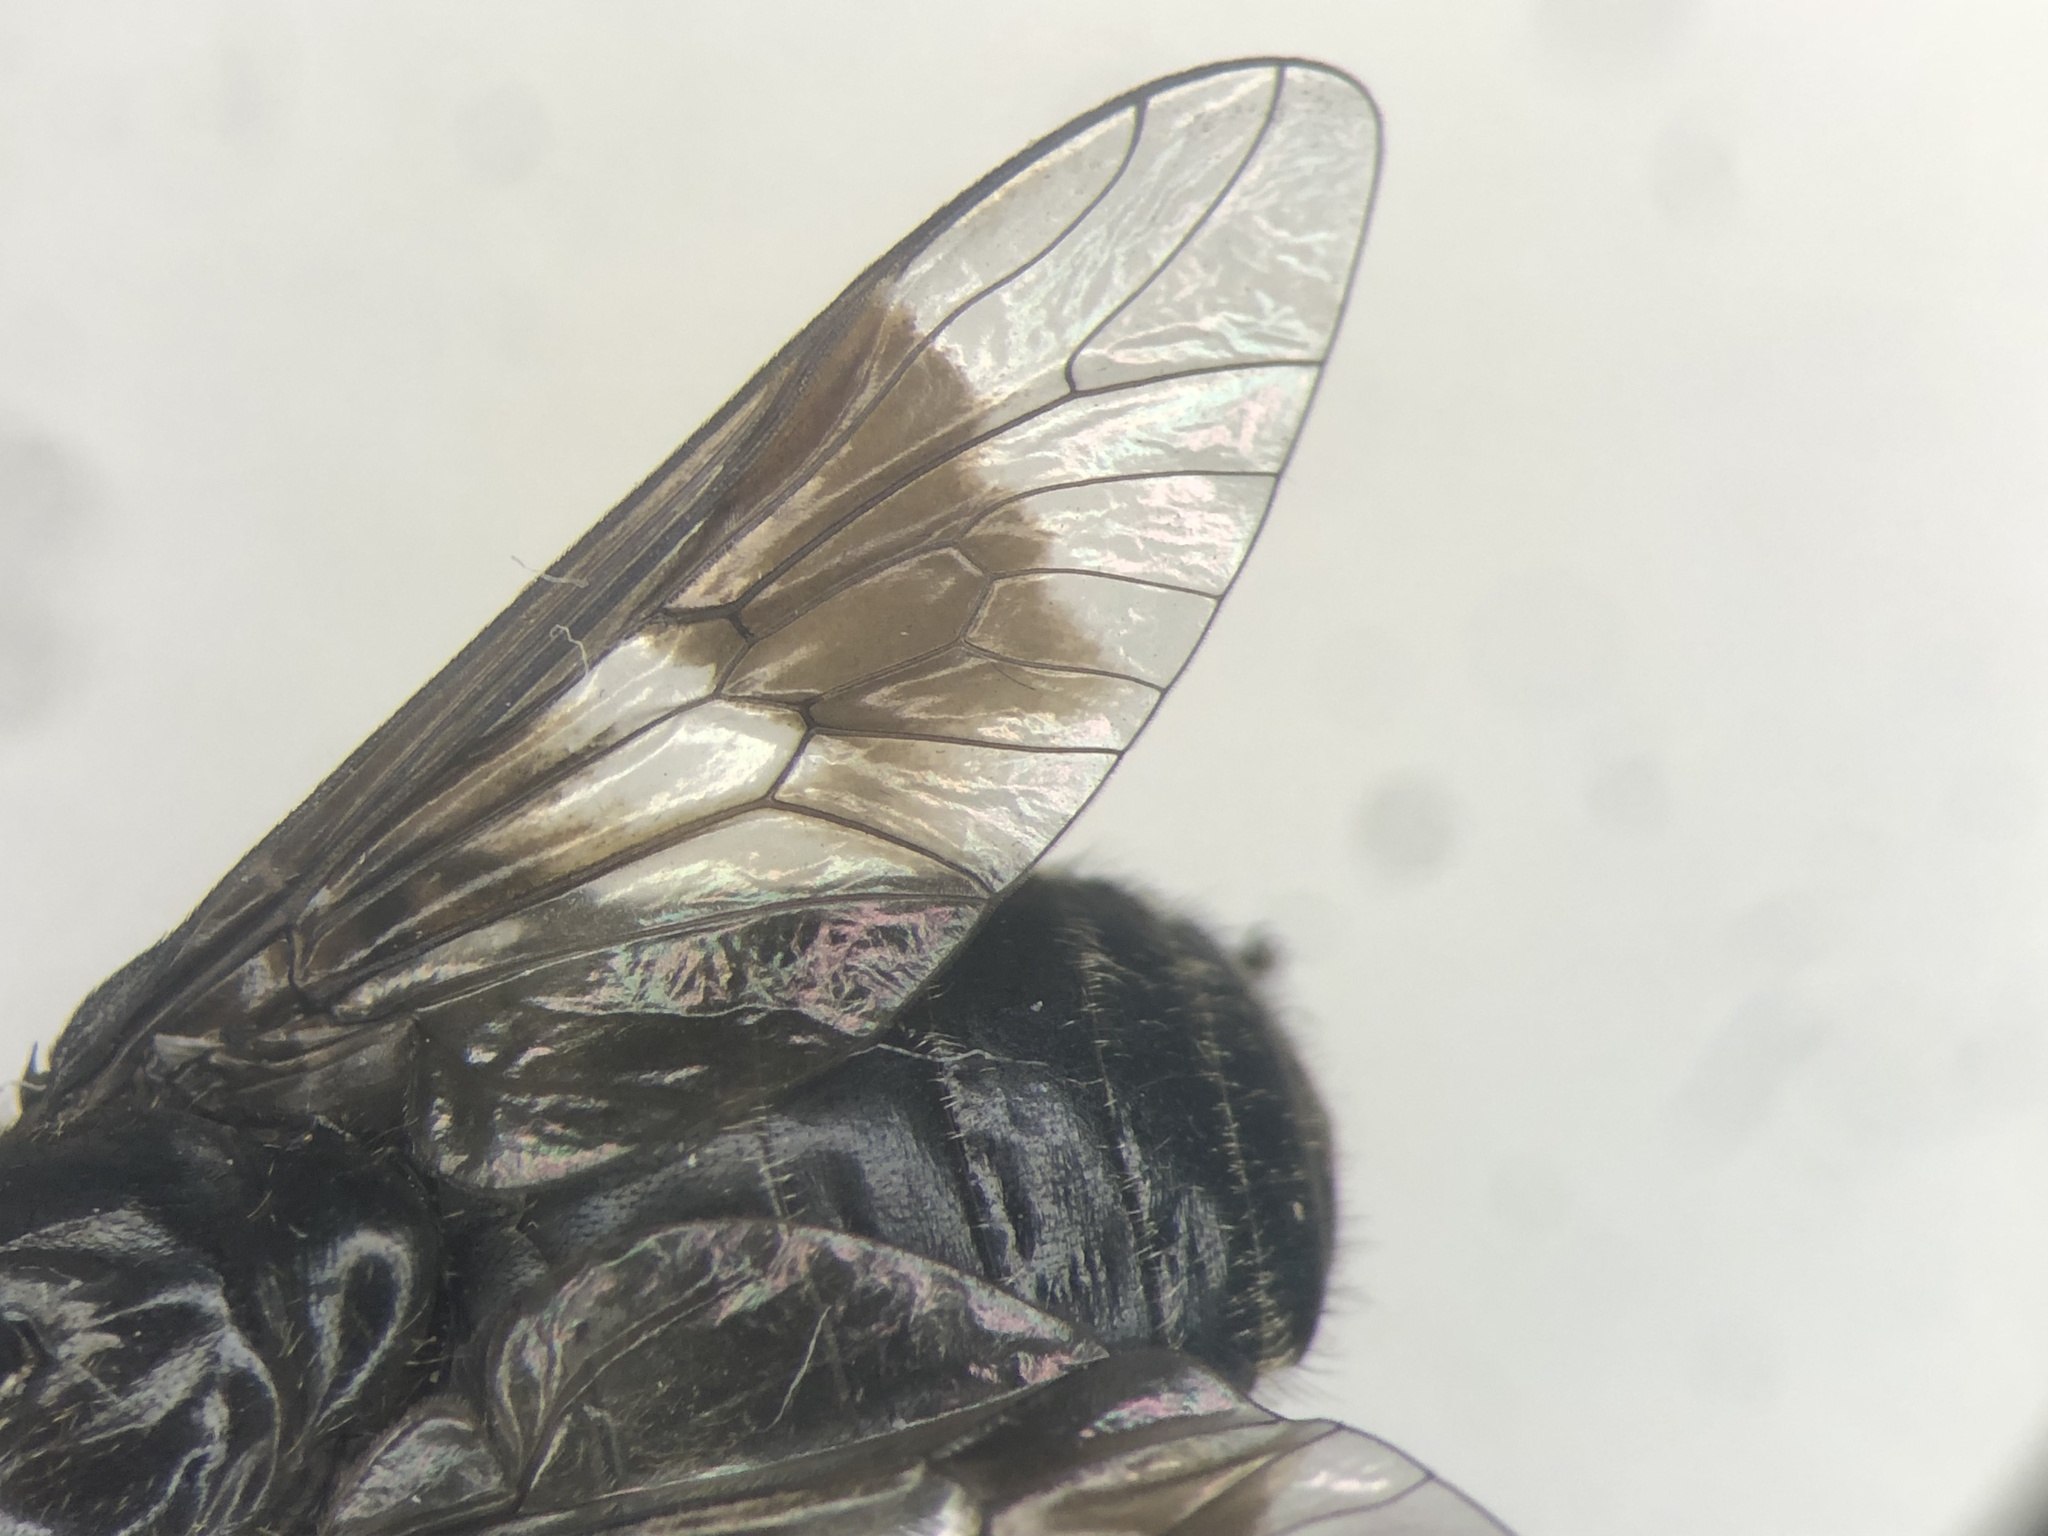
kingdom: Animalia
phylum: Arthropoda
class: Insecta
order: Diptera
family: Tabanidae
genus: Chrysops
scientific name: Chrysops ater
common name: Dark deer fly
